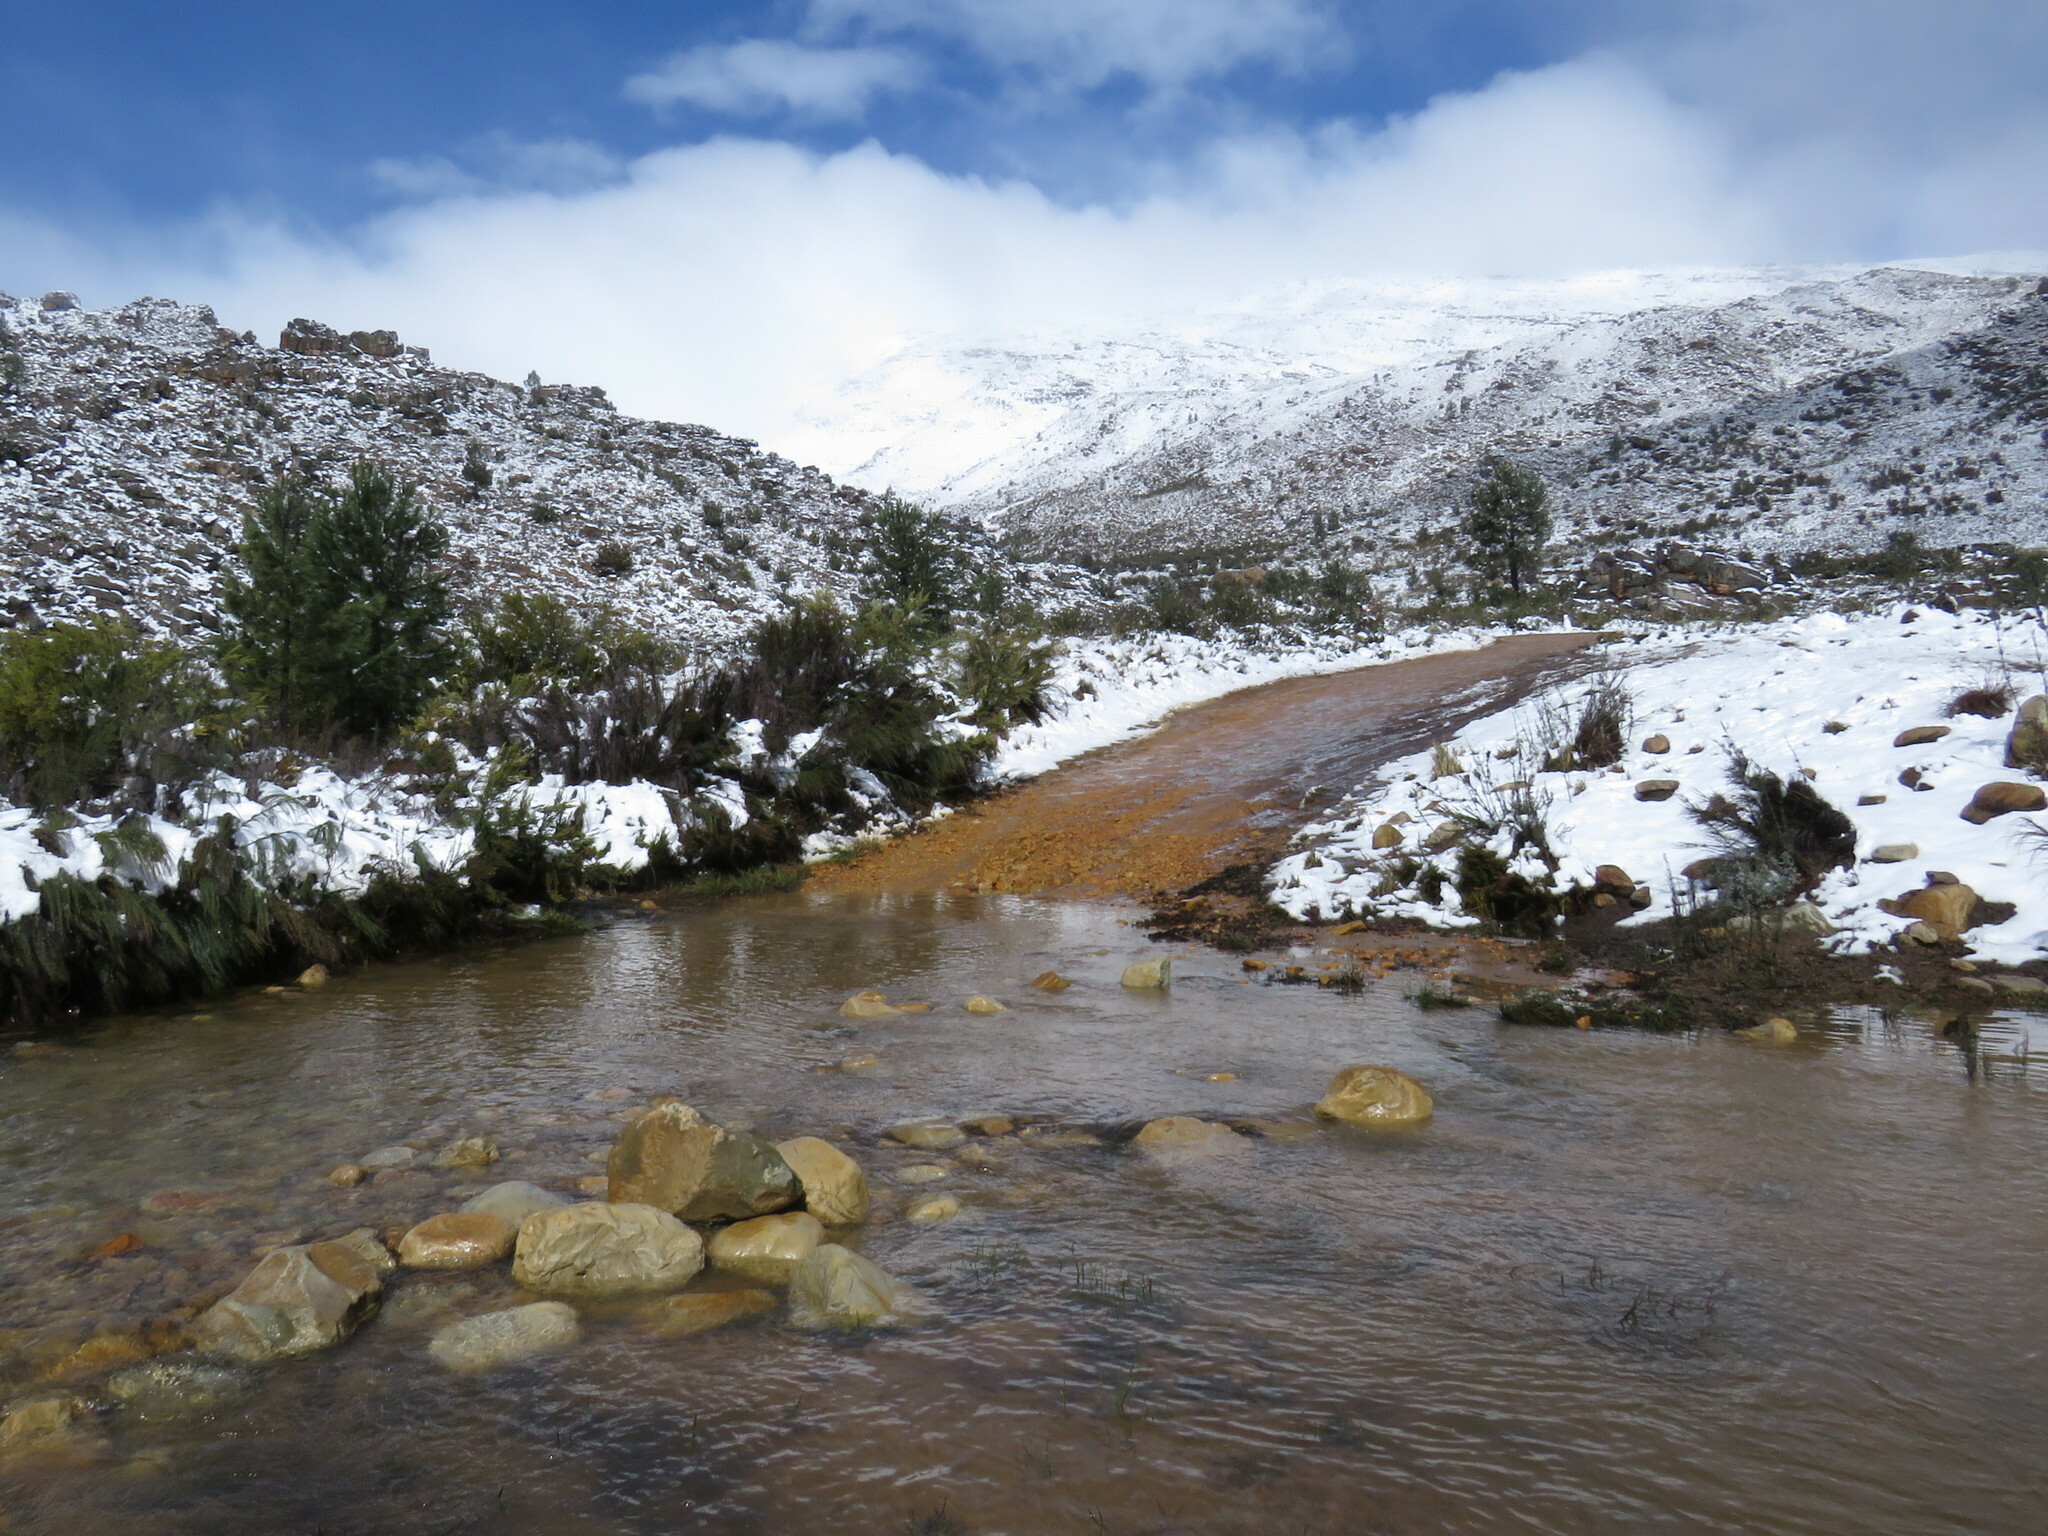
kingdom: Plantae
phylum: Tracheophyta
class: Pinopsida
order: Pinales
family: Pinaceae
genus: Pinus
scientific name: Pinus pinaster
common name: Maritime pine
